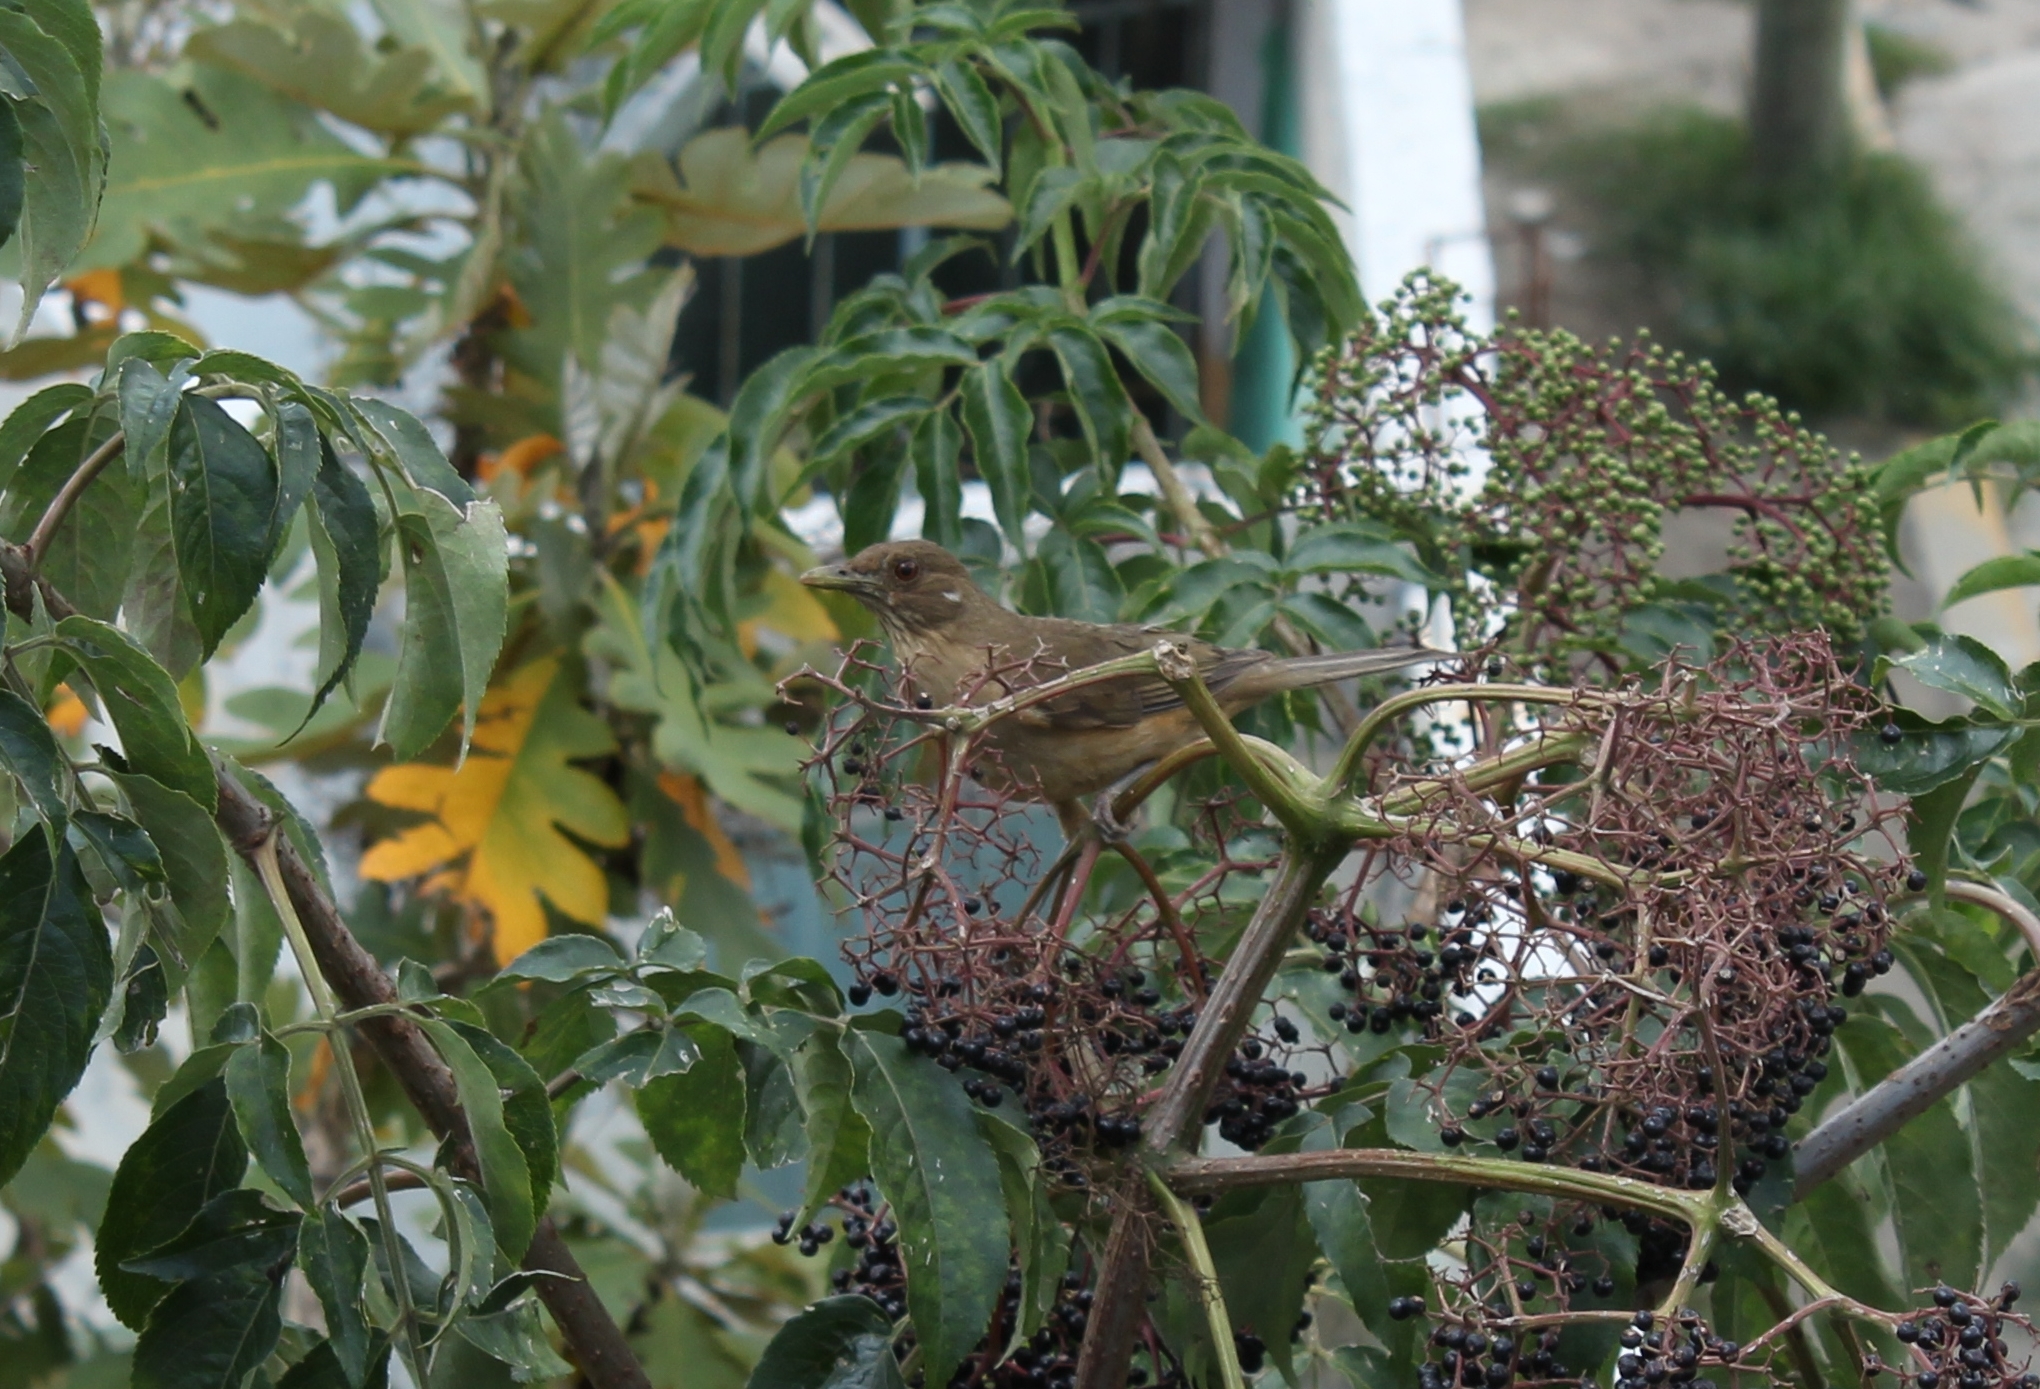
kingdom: Animalia
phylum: Chordata
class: Aves
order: Passeriformes
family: Turdidae
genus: Turdus
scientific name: Turdus grayi
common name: Clay-colored thrush
